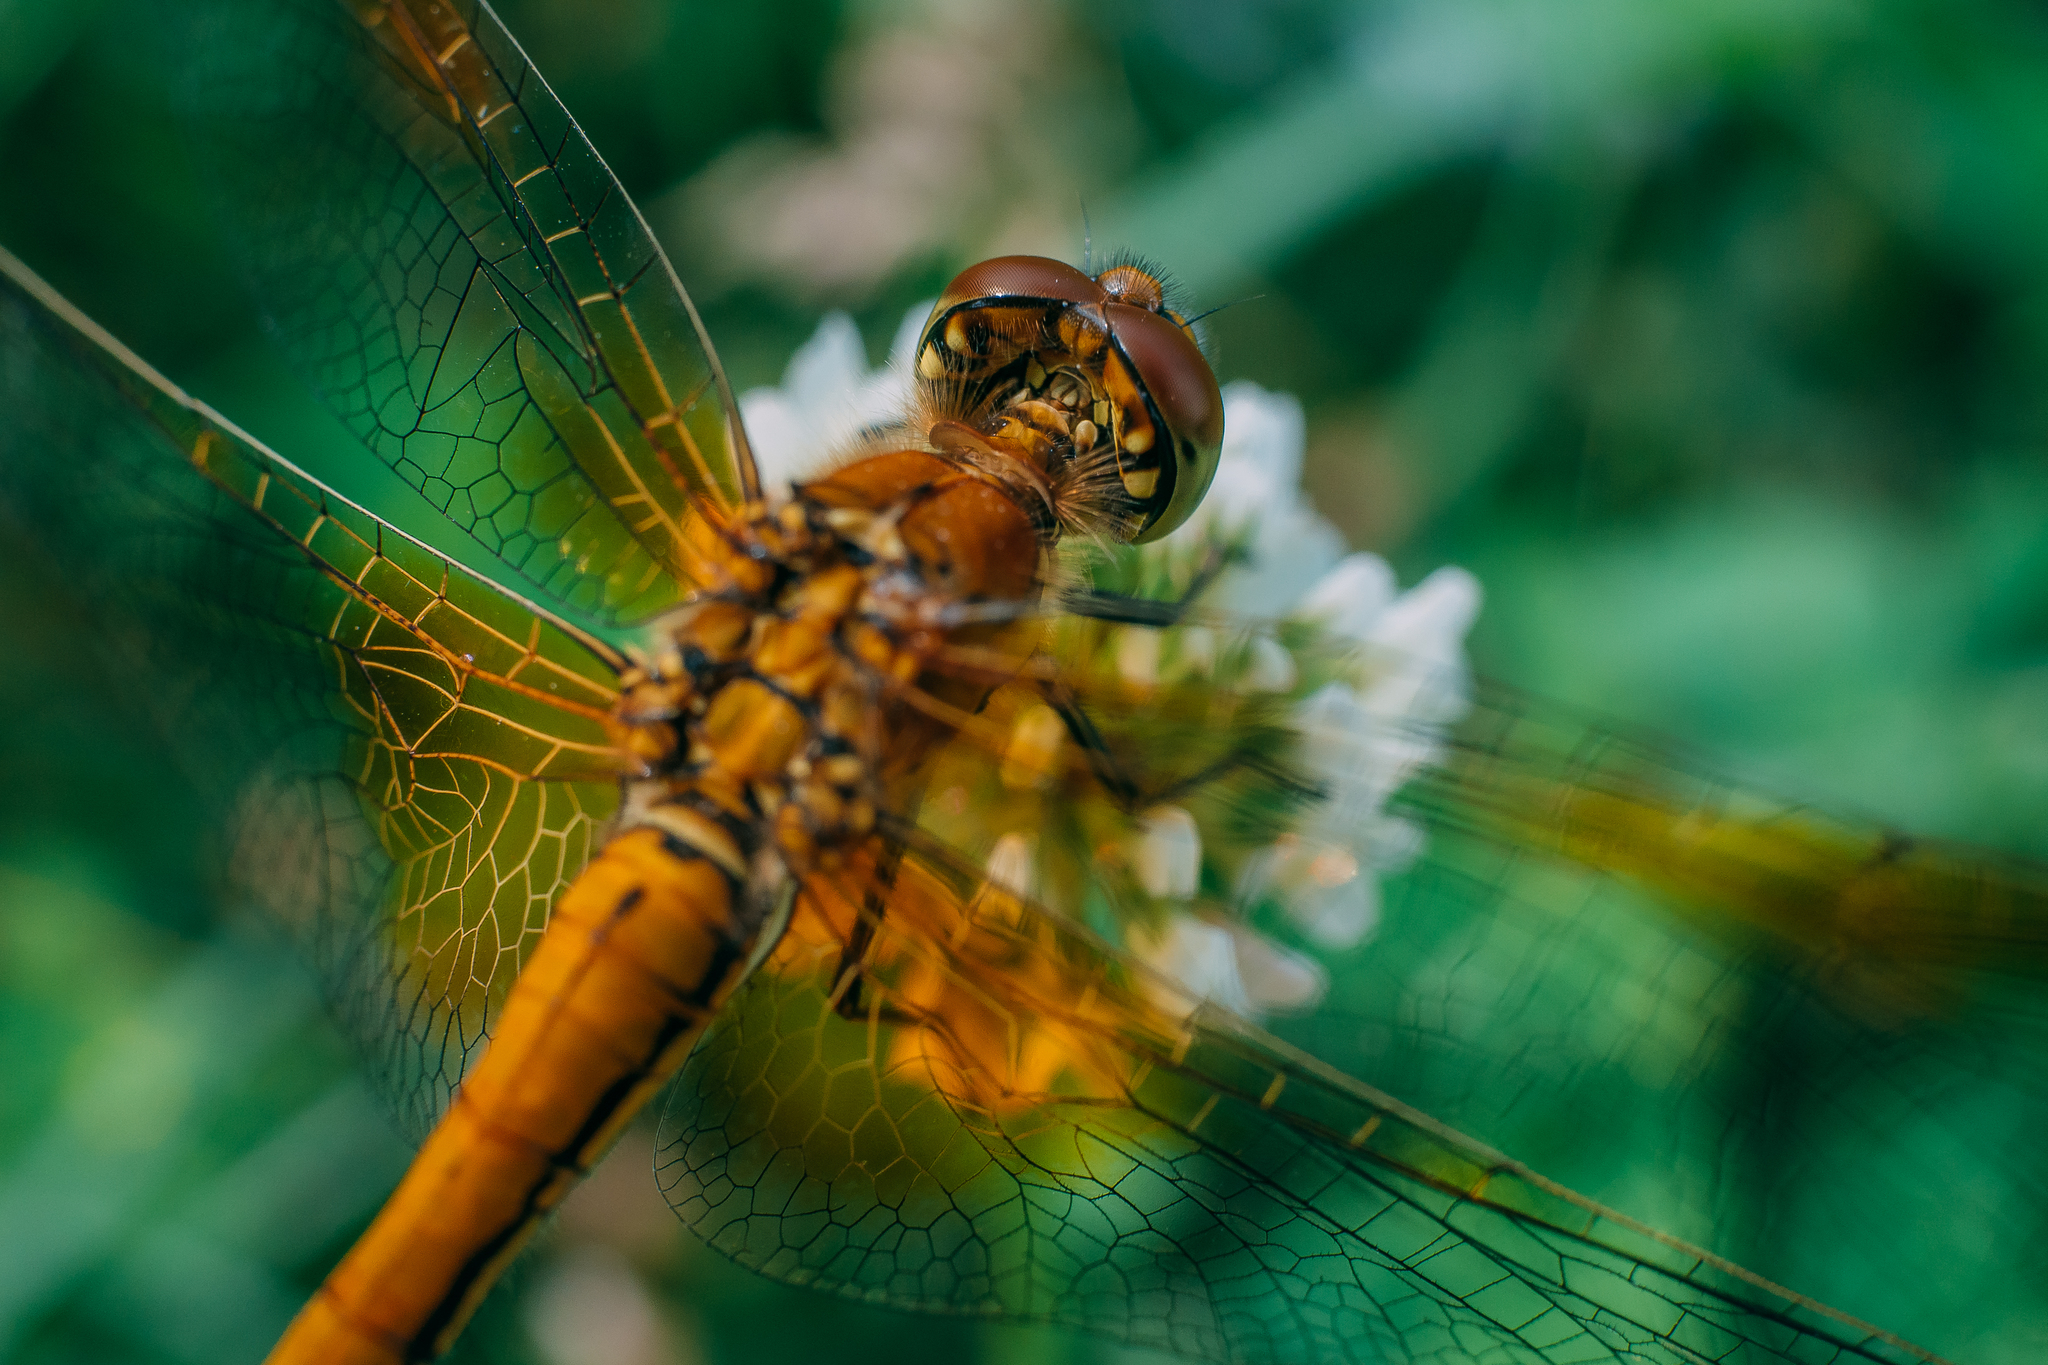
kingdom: Animalia
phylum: Arthropoda
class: Insecta
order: Odonata
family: Libellulidae
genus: Sympetrum
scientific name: Sympetrum flaveolum
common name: Yellow-winged darter
